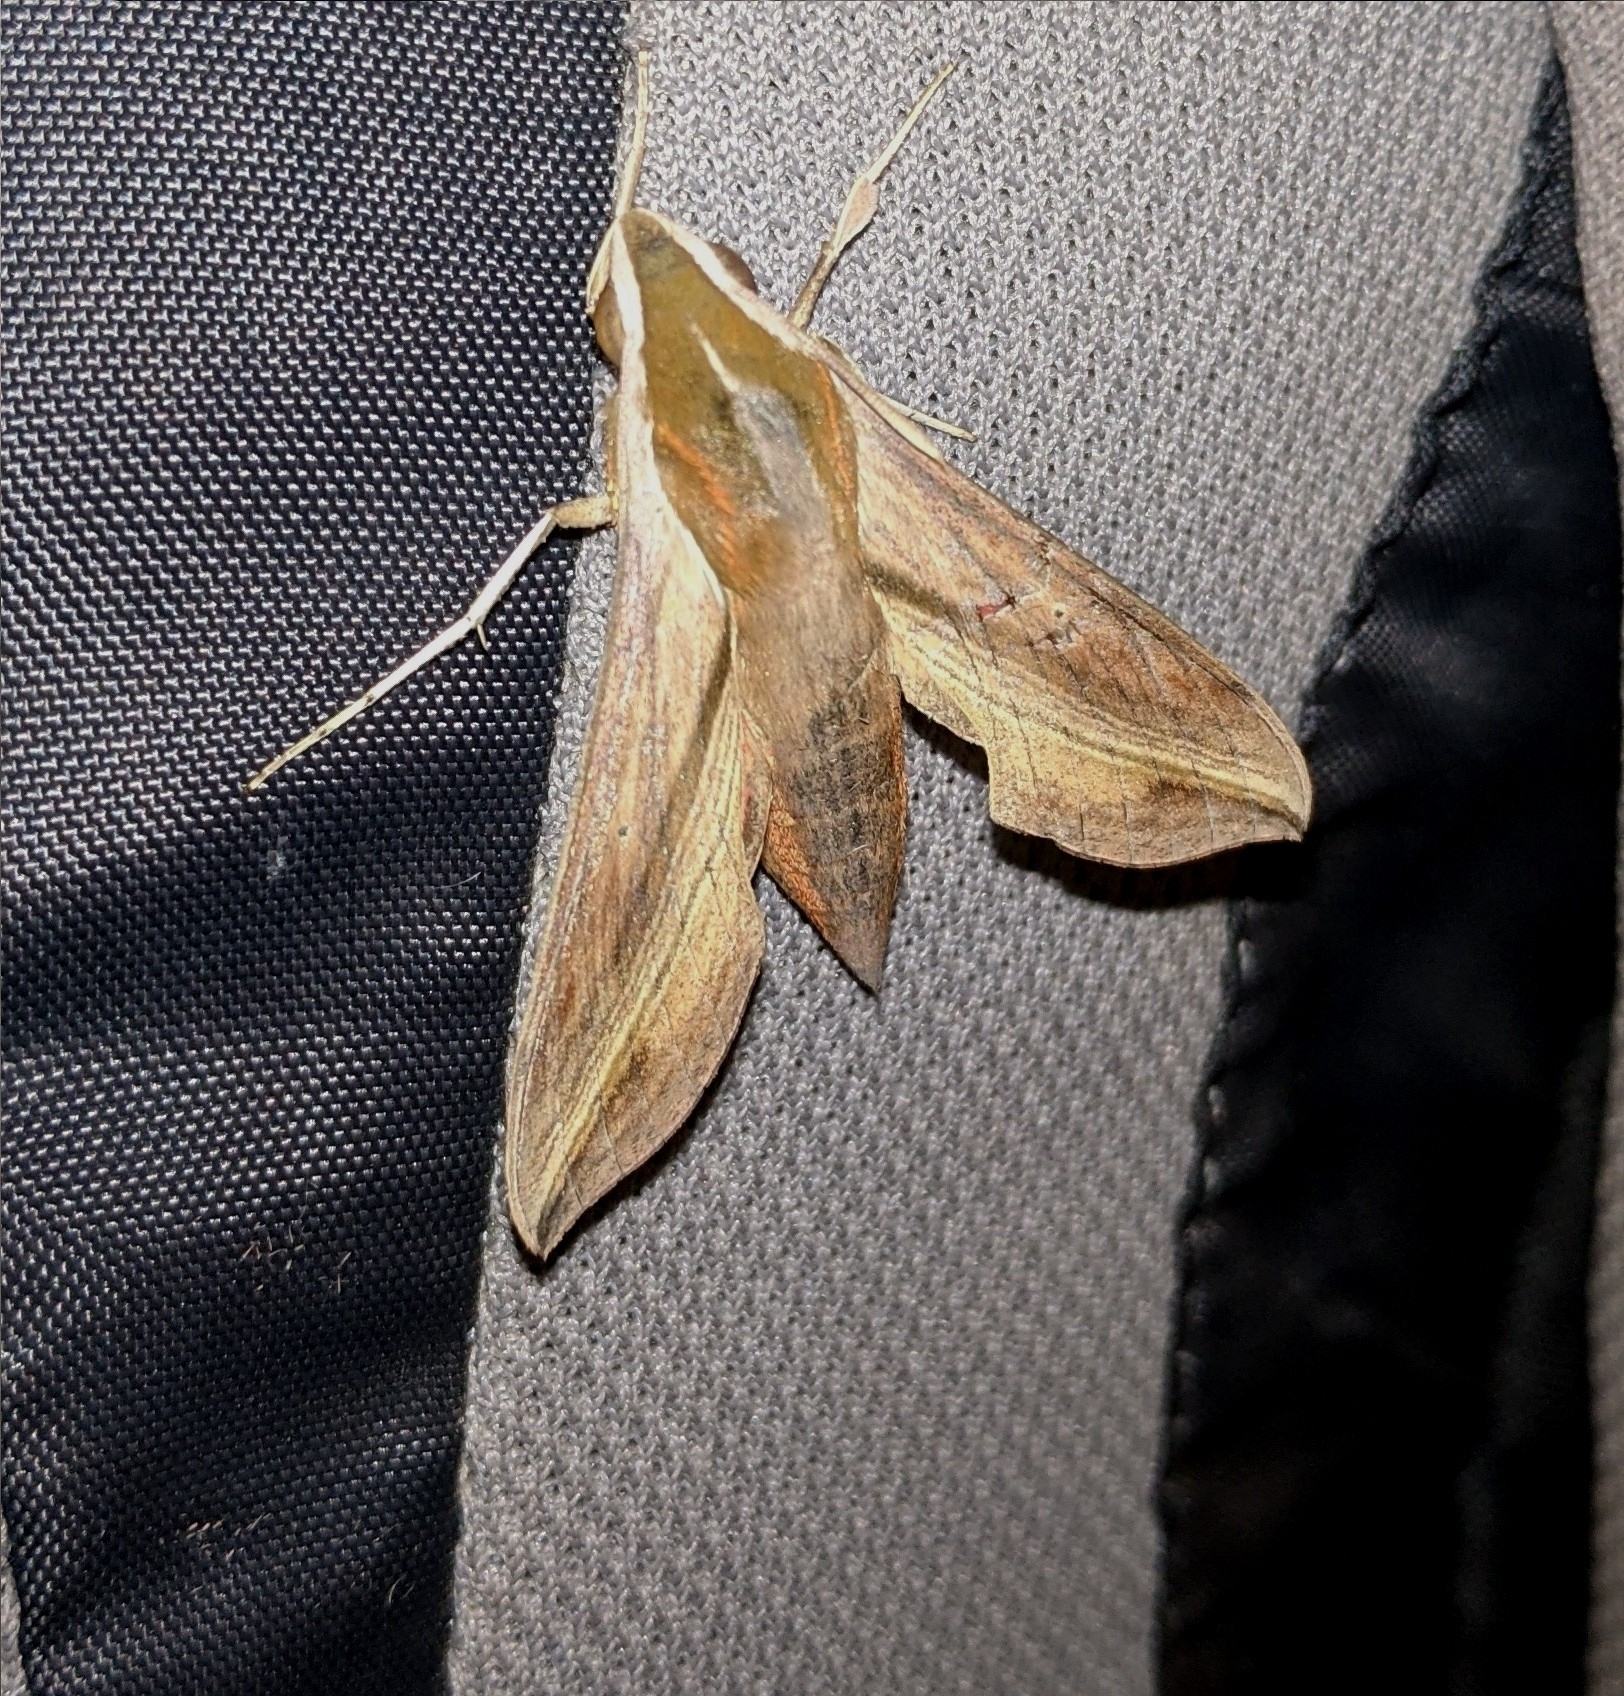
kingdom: Animalia
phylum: Arthropoda
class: Insecta
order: Lepidoptera
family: Sphingidae
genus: Hippotion
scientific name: Hippotion rosetta
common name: Vine hawk moth
